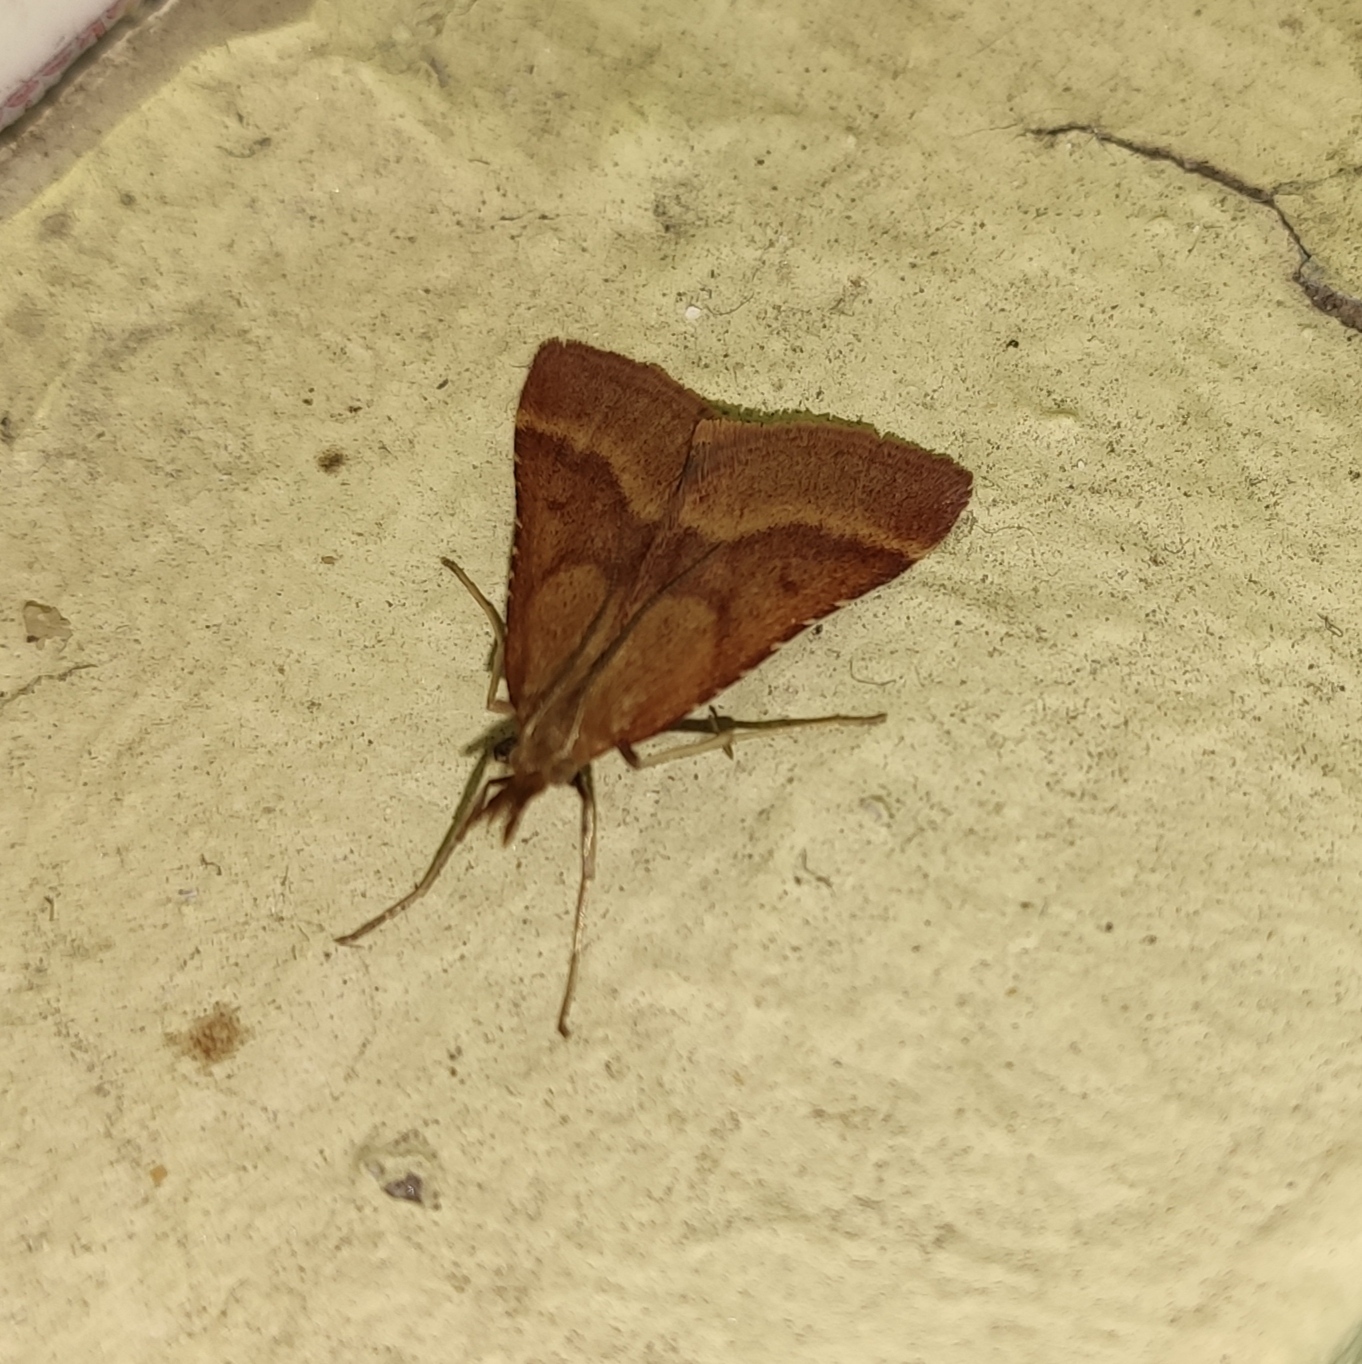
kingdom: Animalia
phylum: Arthropoda
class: Insecta
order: Lepidoptera
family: Pyralidae
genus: Synaphe
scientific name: Synaphe punctalis
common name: Long-legged tabby
